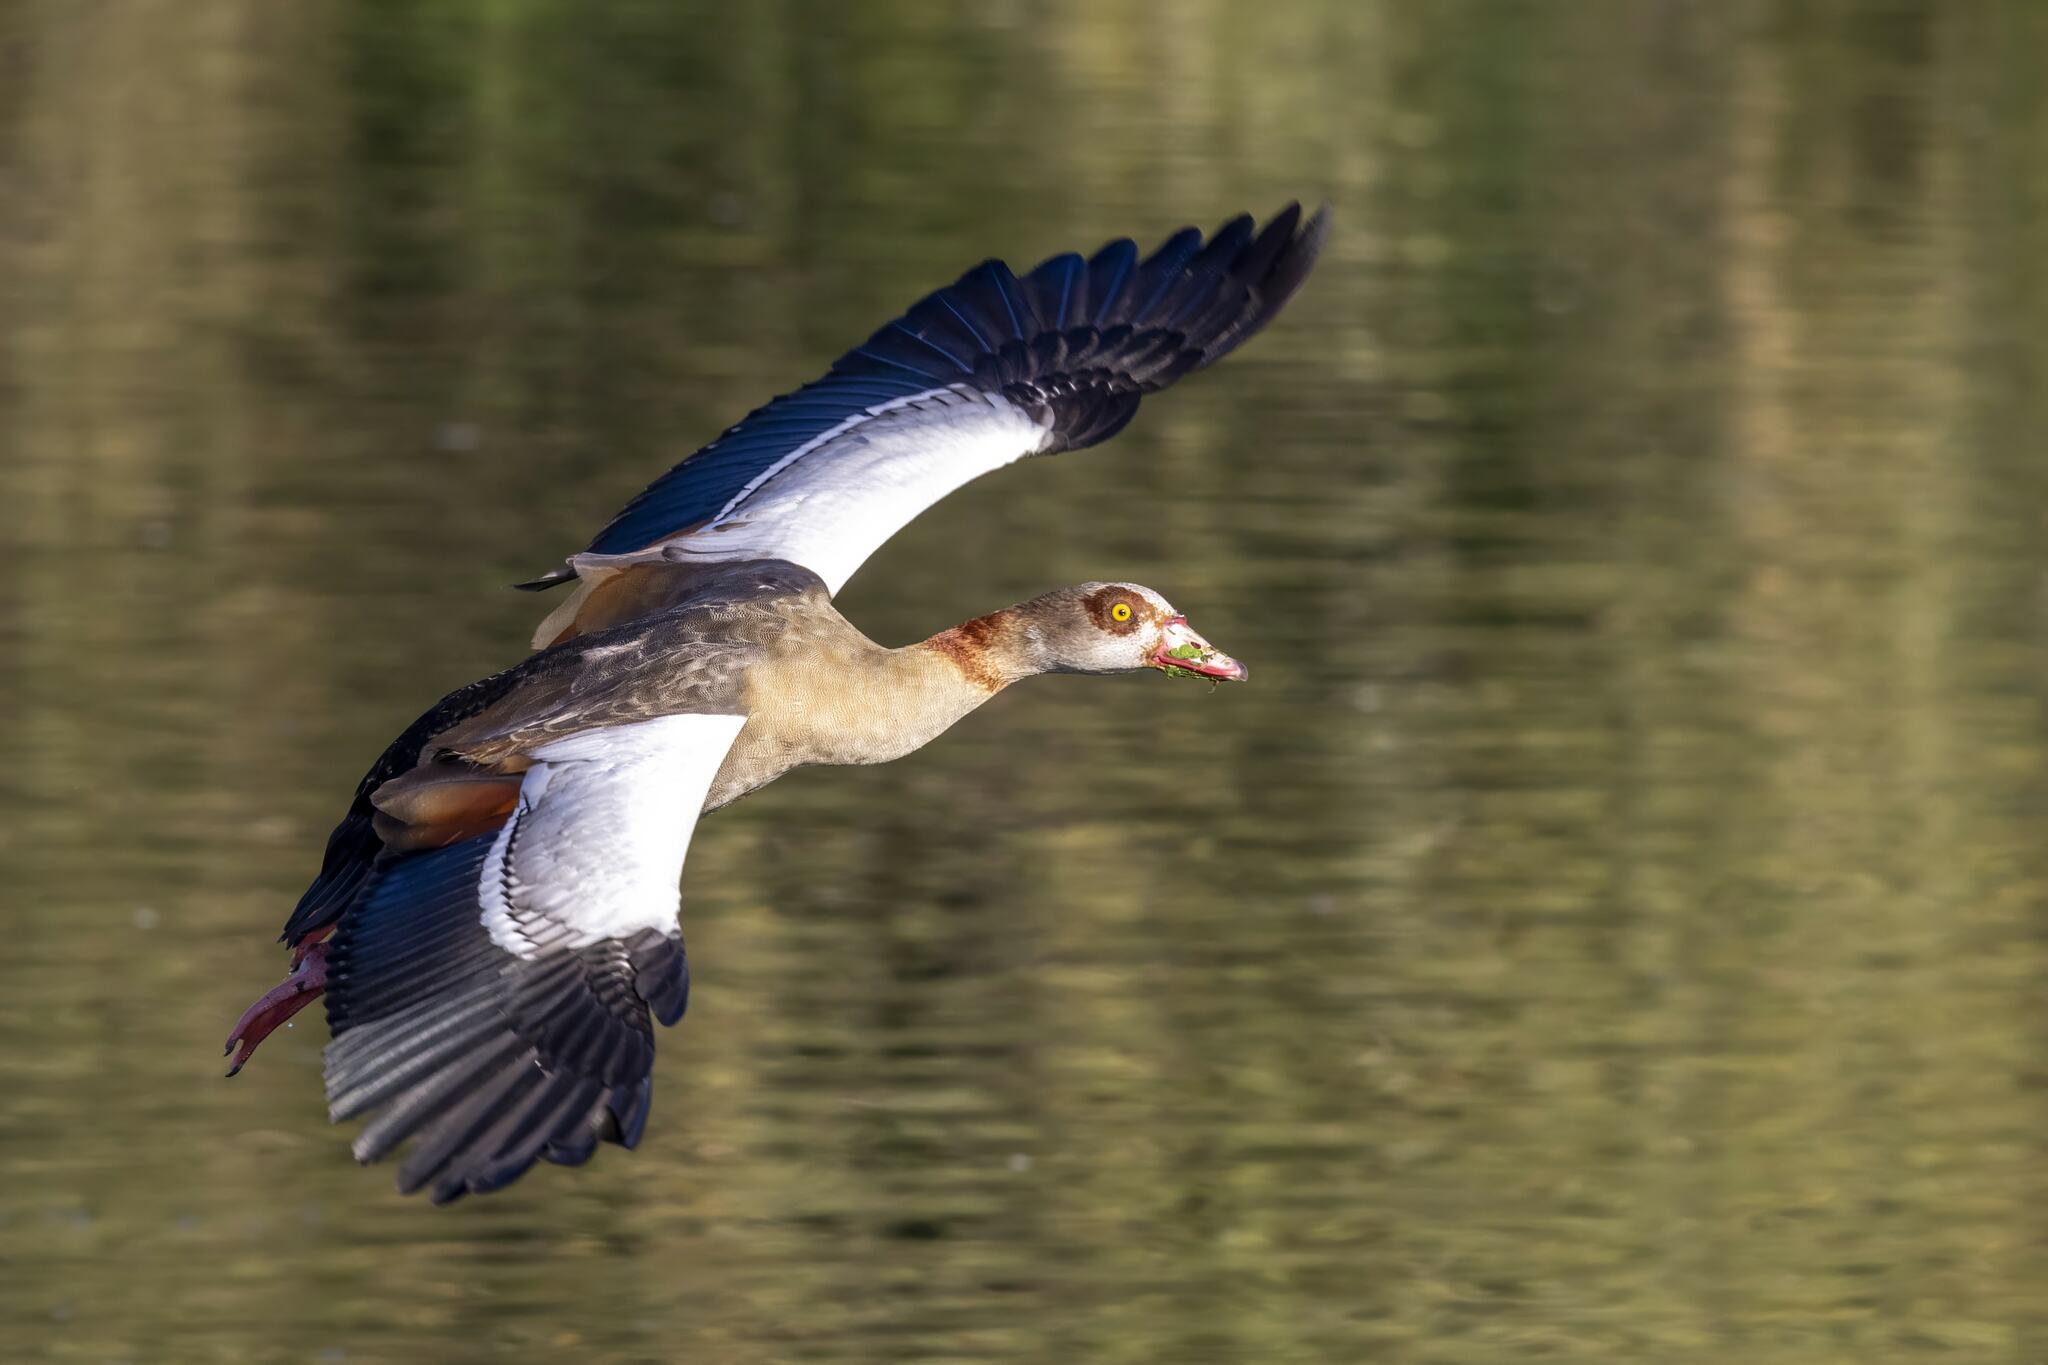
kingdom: Animalia
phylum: Chordata
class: Aves
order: Anseriformes
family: Anatidae
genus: Alopochen
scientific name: Alopochen aegyptiaca
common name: Egyptian goose
